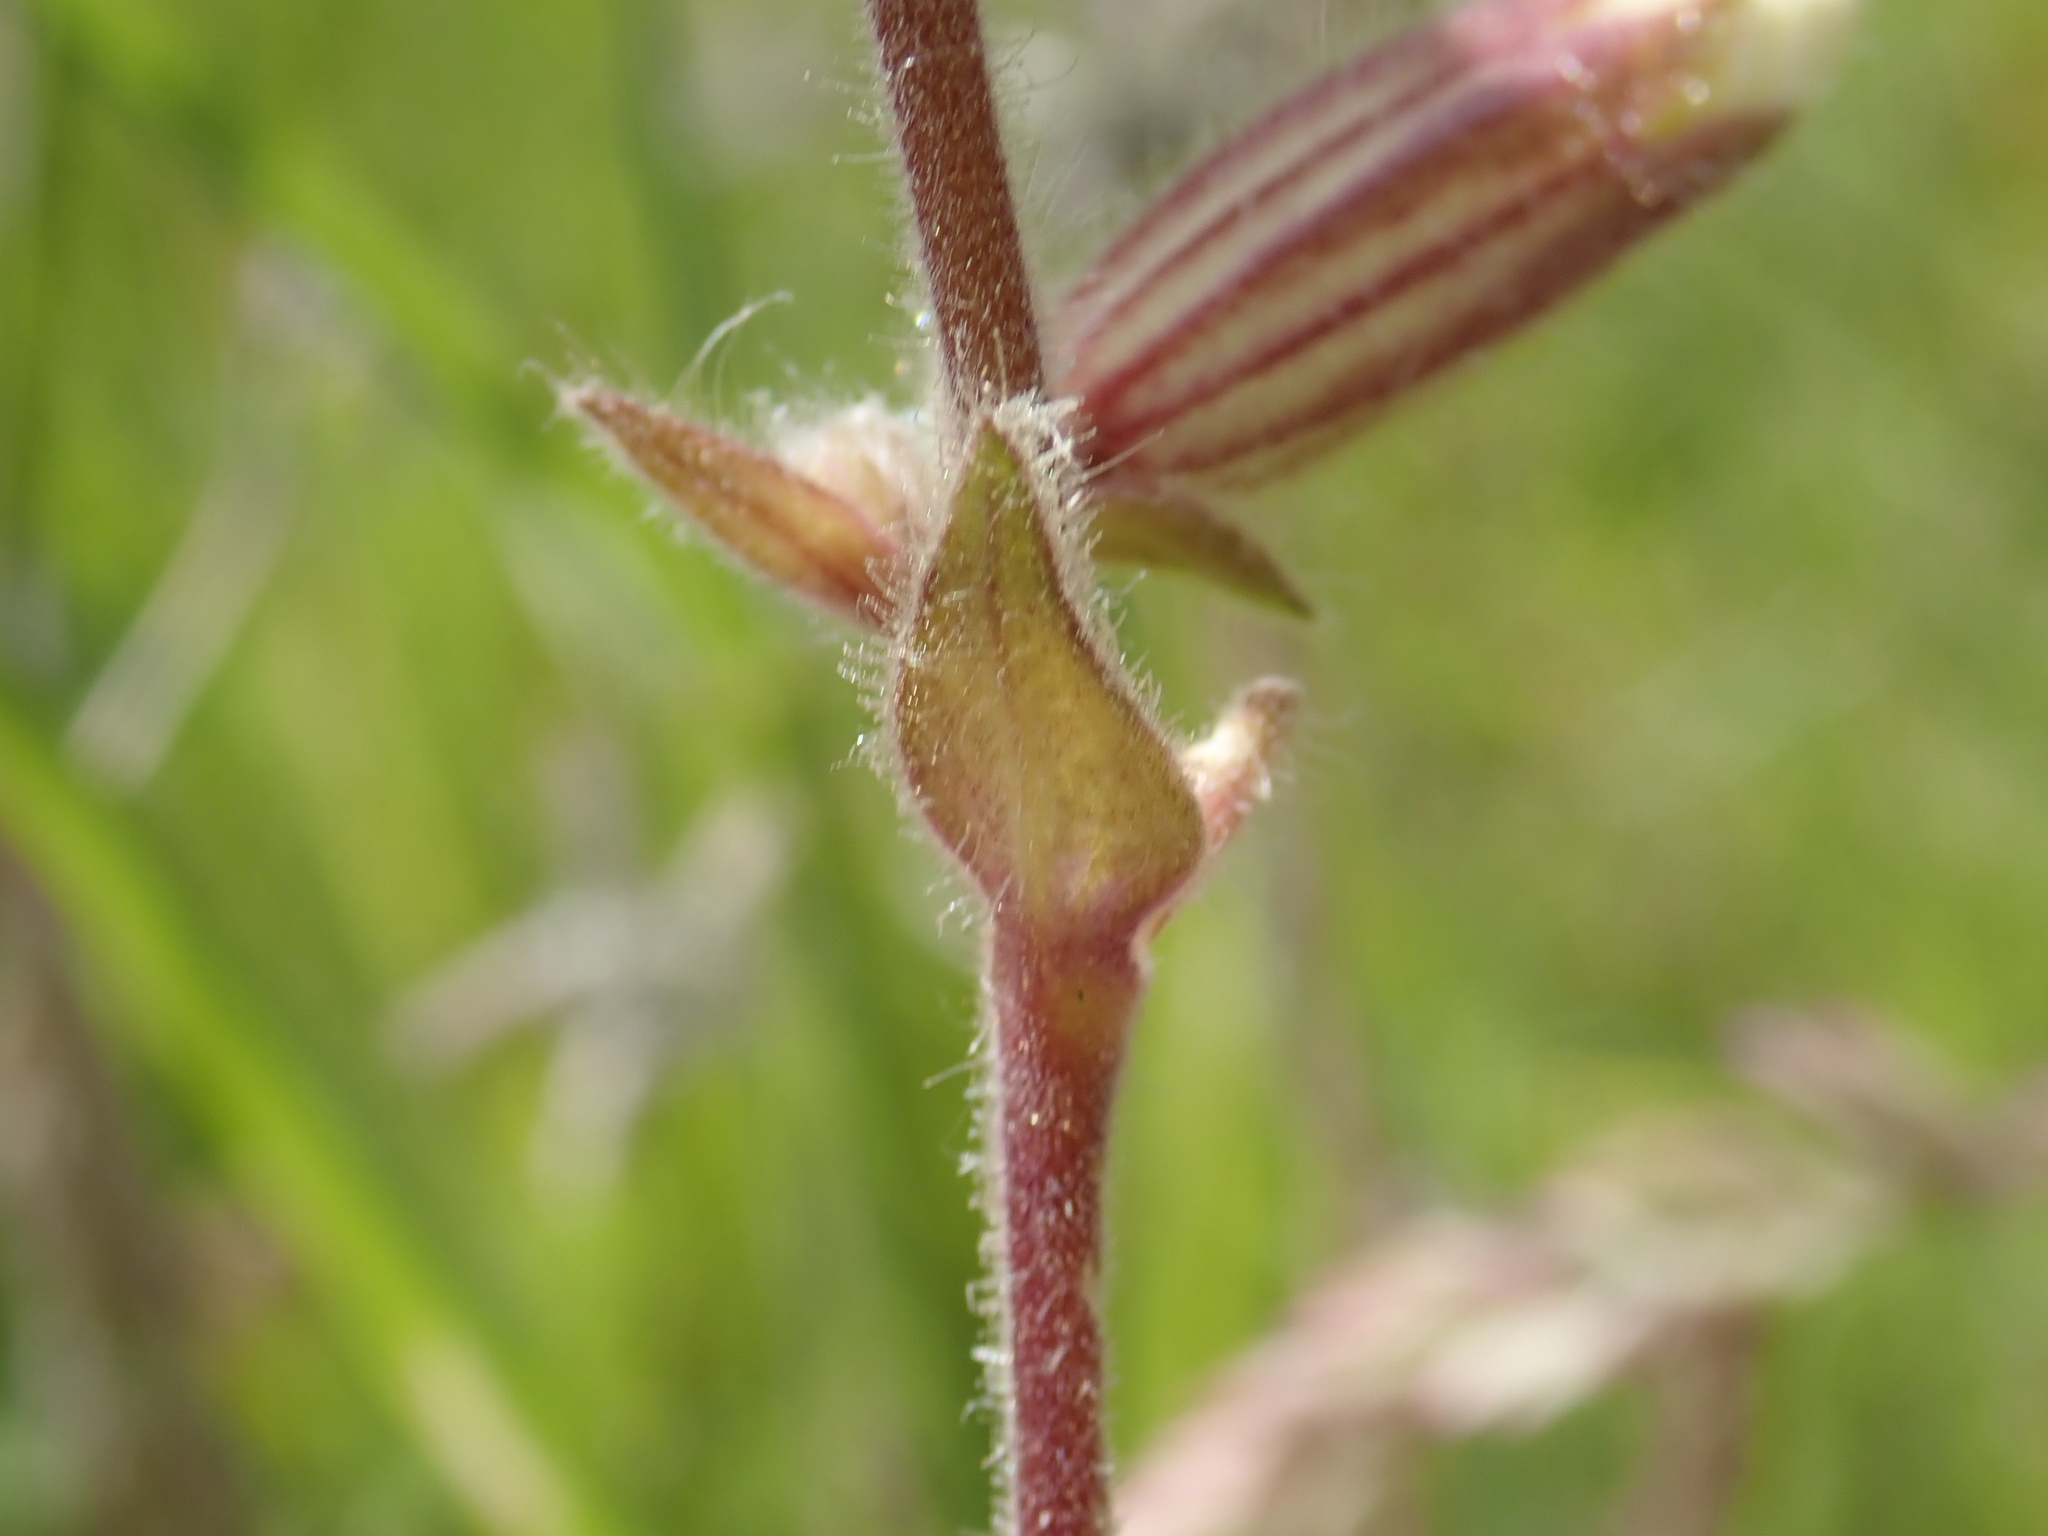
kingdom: Plantae
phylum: Tracheophyta
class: Magnoliopsida
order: Caryophyllales
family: Caryophyllaceae
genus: Silene
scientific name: Silene latifolia
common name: White campion
